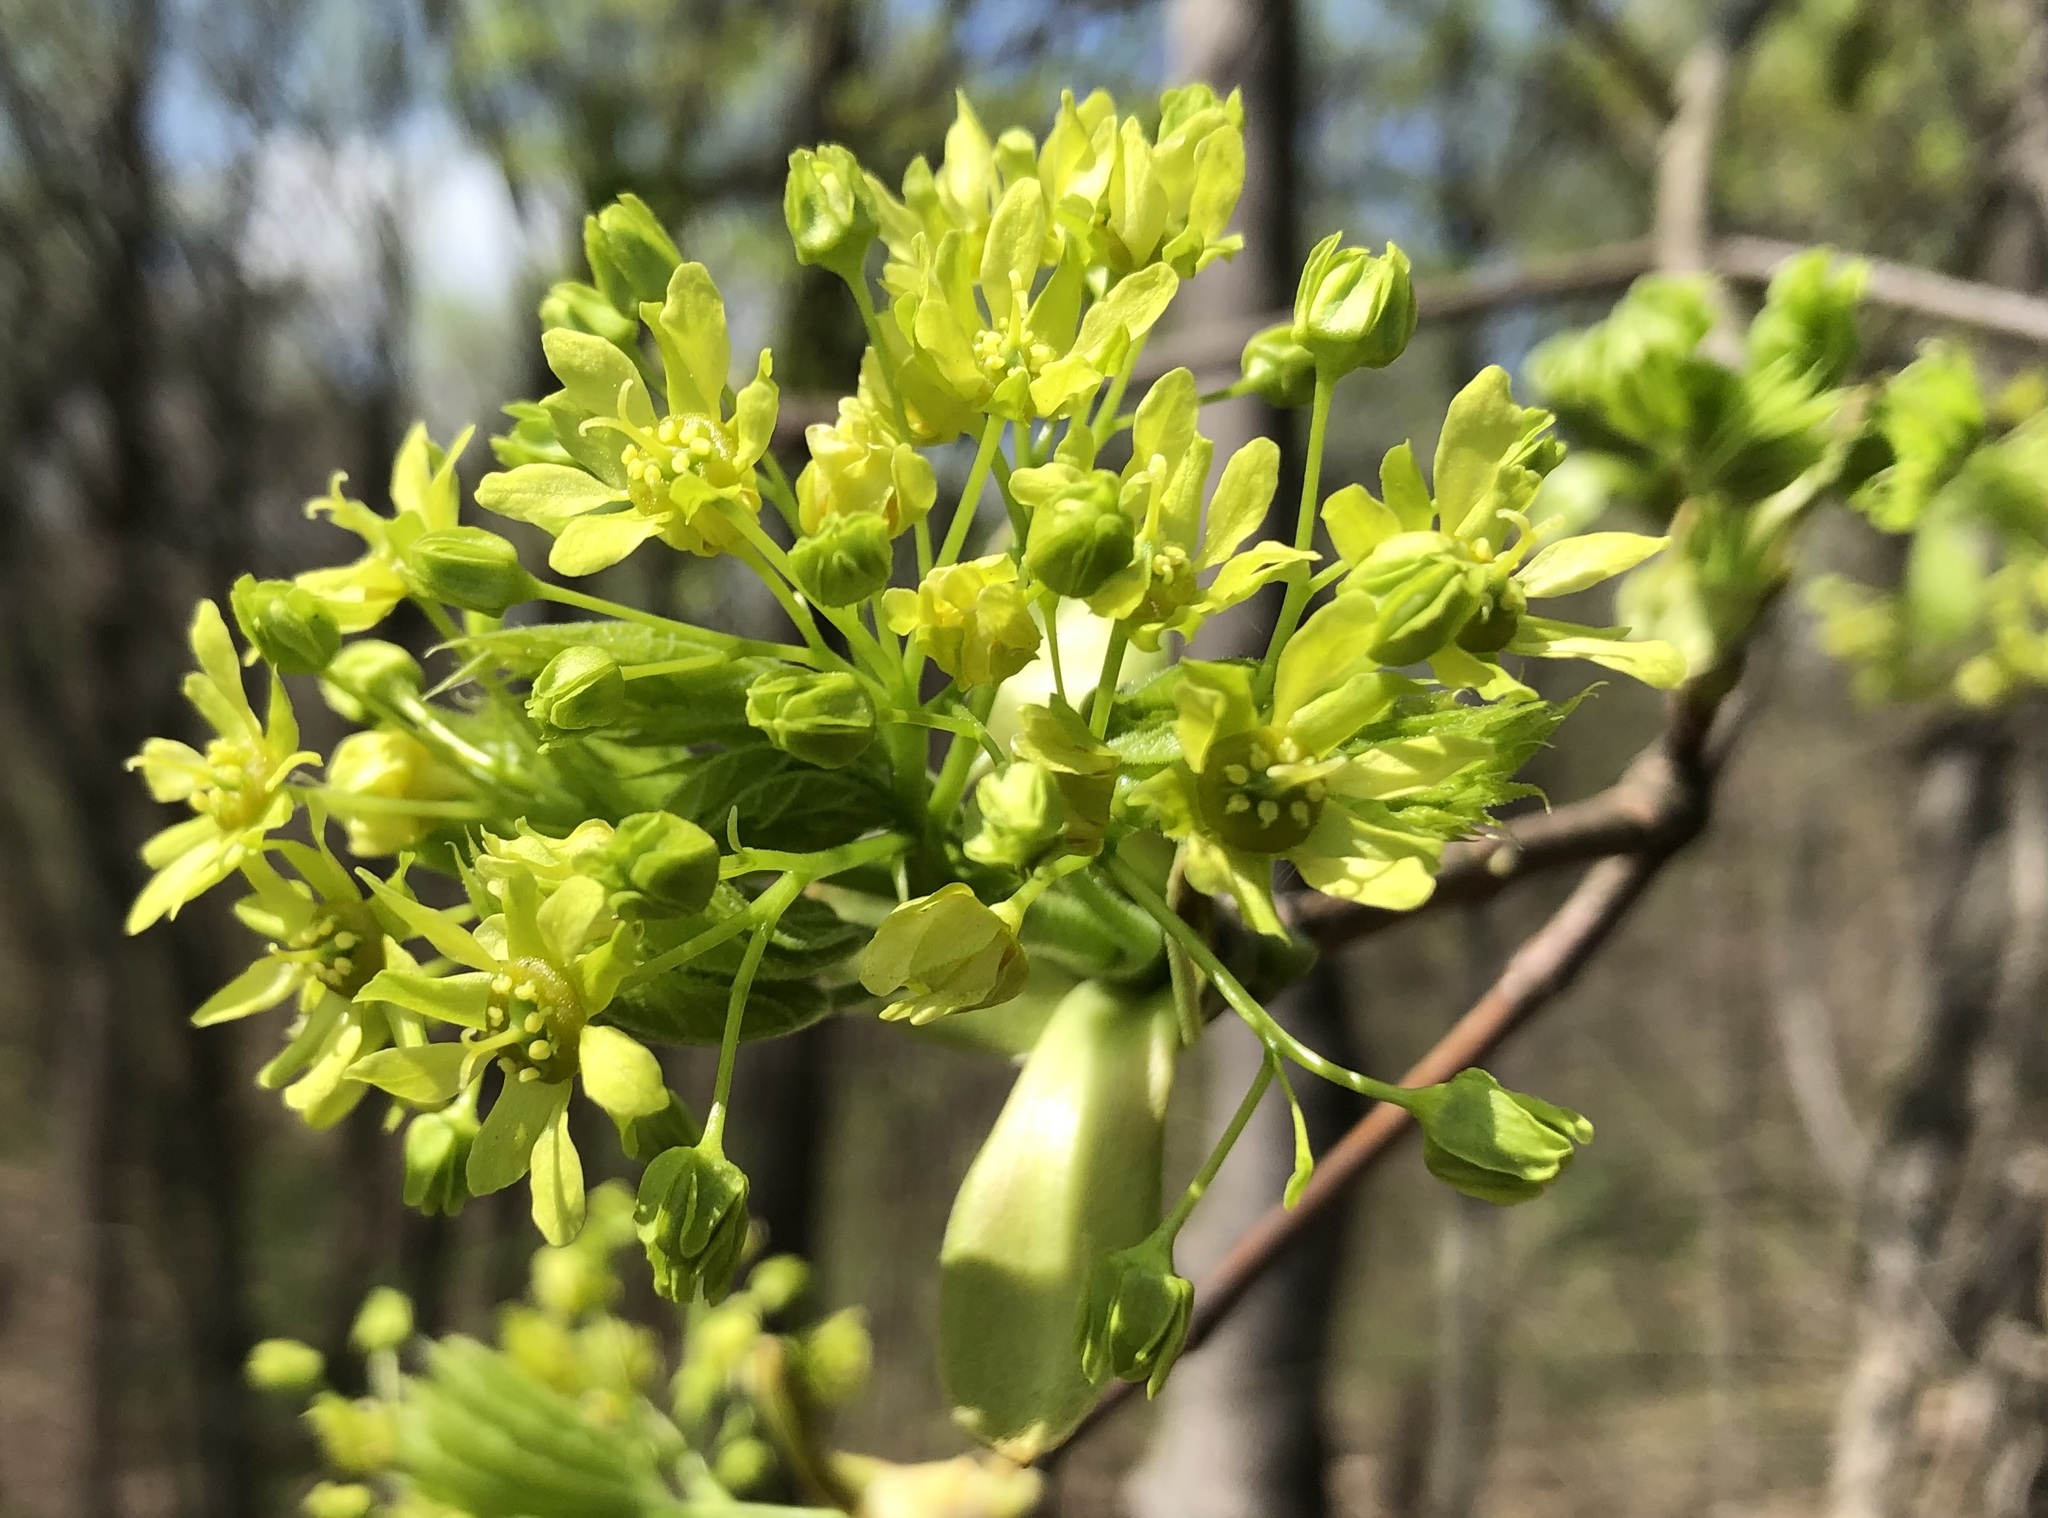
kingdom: Plantae
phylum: Tracheophyta
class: Magnoliopsida
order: Sapindales
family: Sapindaceae
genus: Acer
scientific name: Acer platanoides
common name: Norway maple
